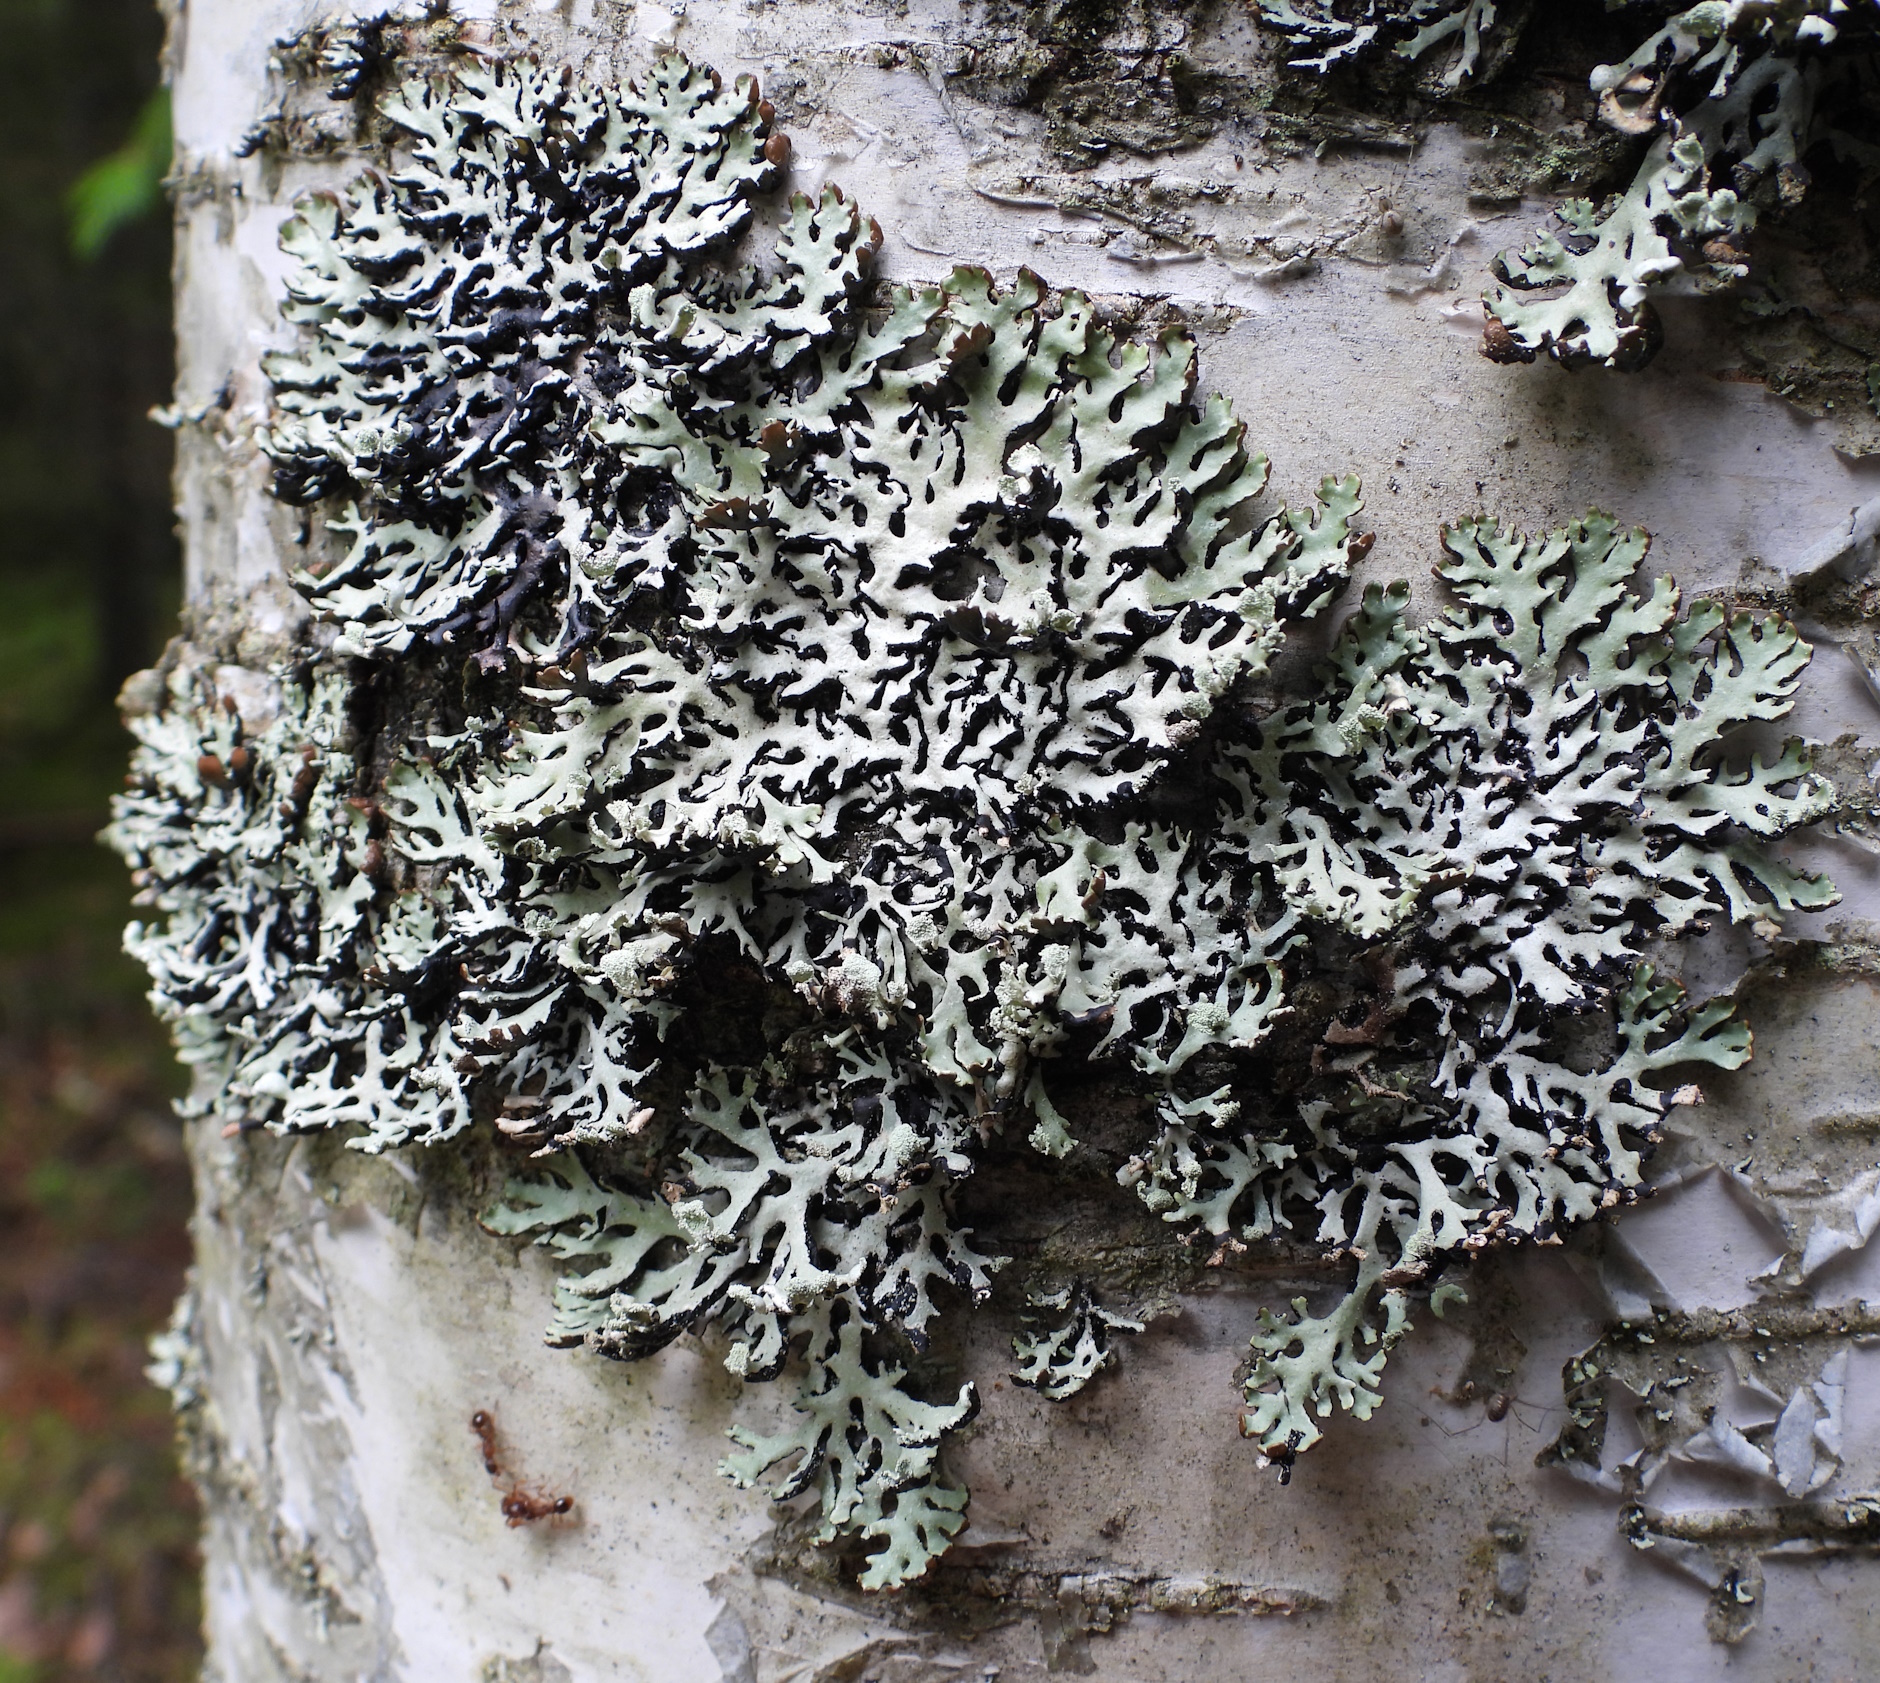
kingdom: Fungi
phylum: Ascomycota
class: Lecanoromycetes
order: Lecanorales
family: Parmeliaceae
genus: Hypogymnia
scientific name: Hypogymnia physodes
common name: Dark crottle
